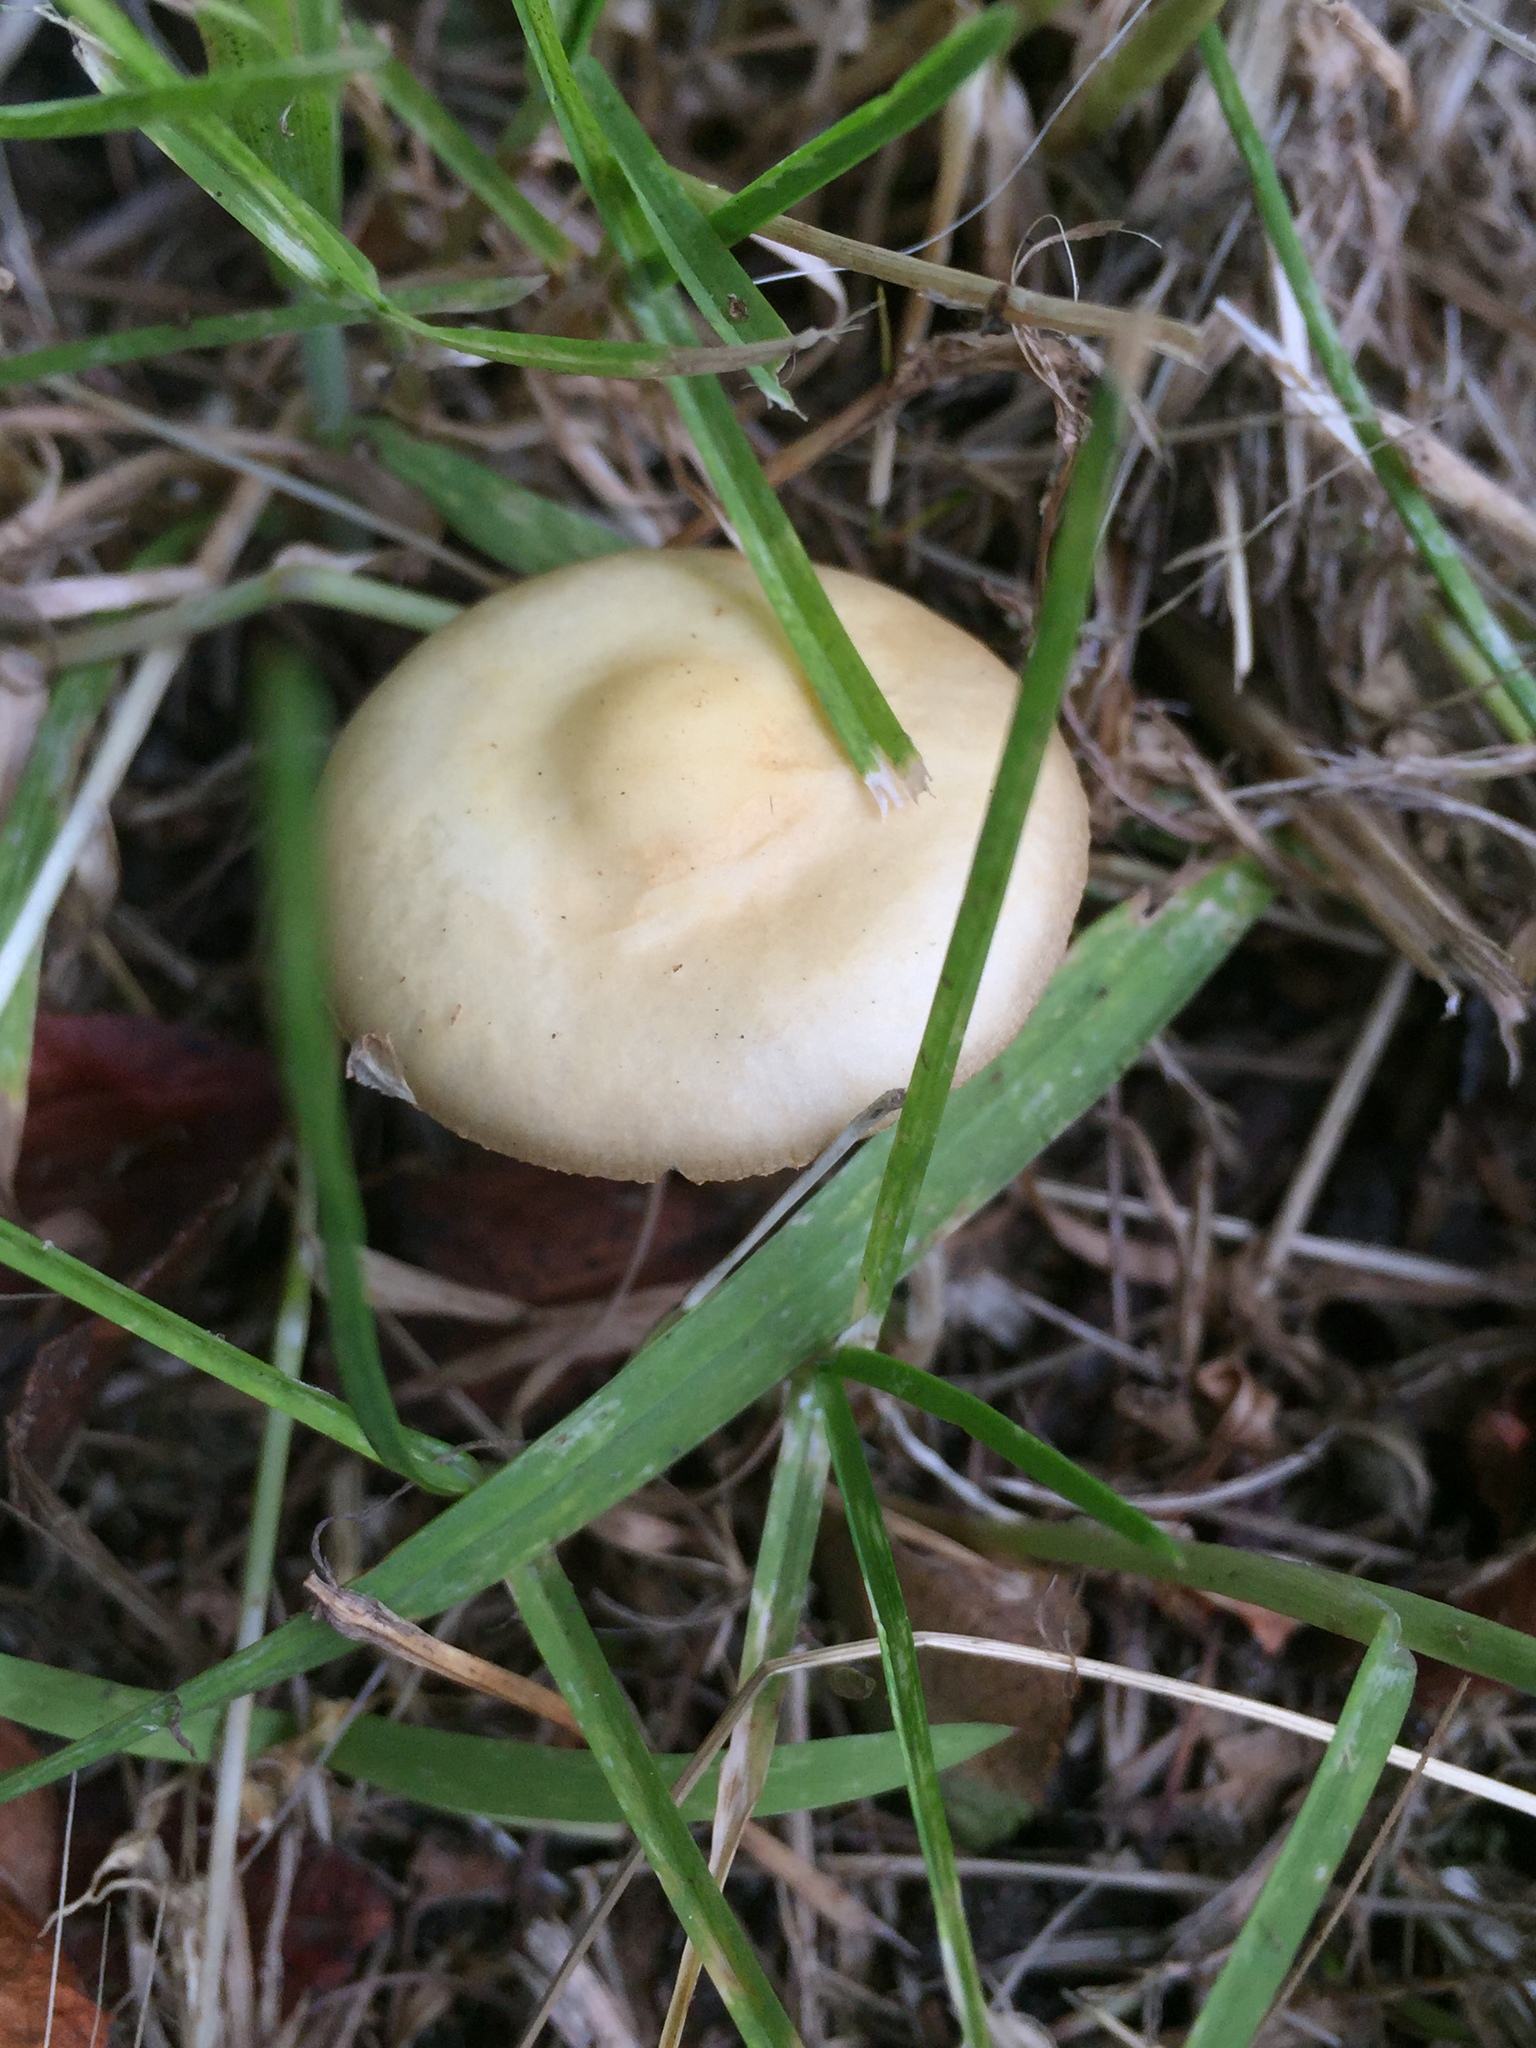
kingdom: Fungi
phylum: Basidiomycota
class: Agaricomycetes
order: Agaricales
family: Strophariaceae
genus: Agrocybe
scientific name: Agrocybe putaminum
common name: Mulch fieldcap
